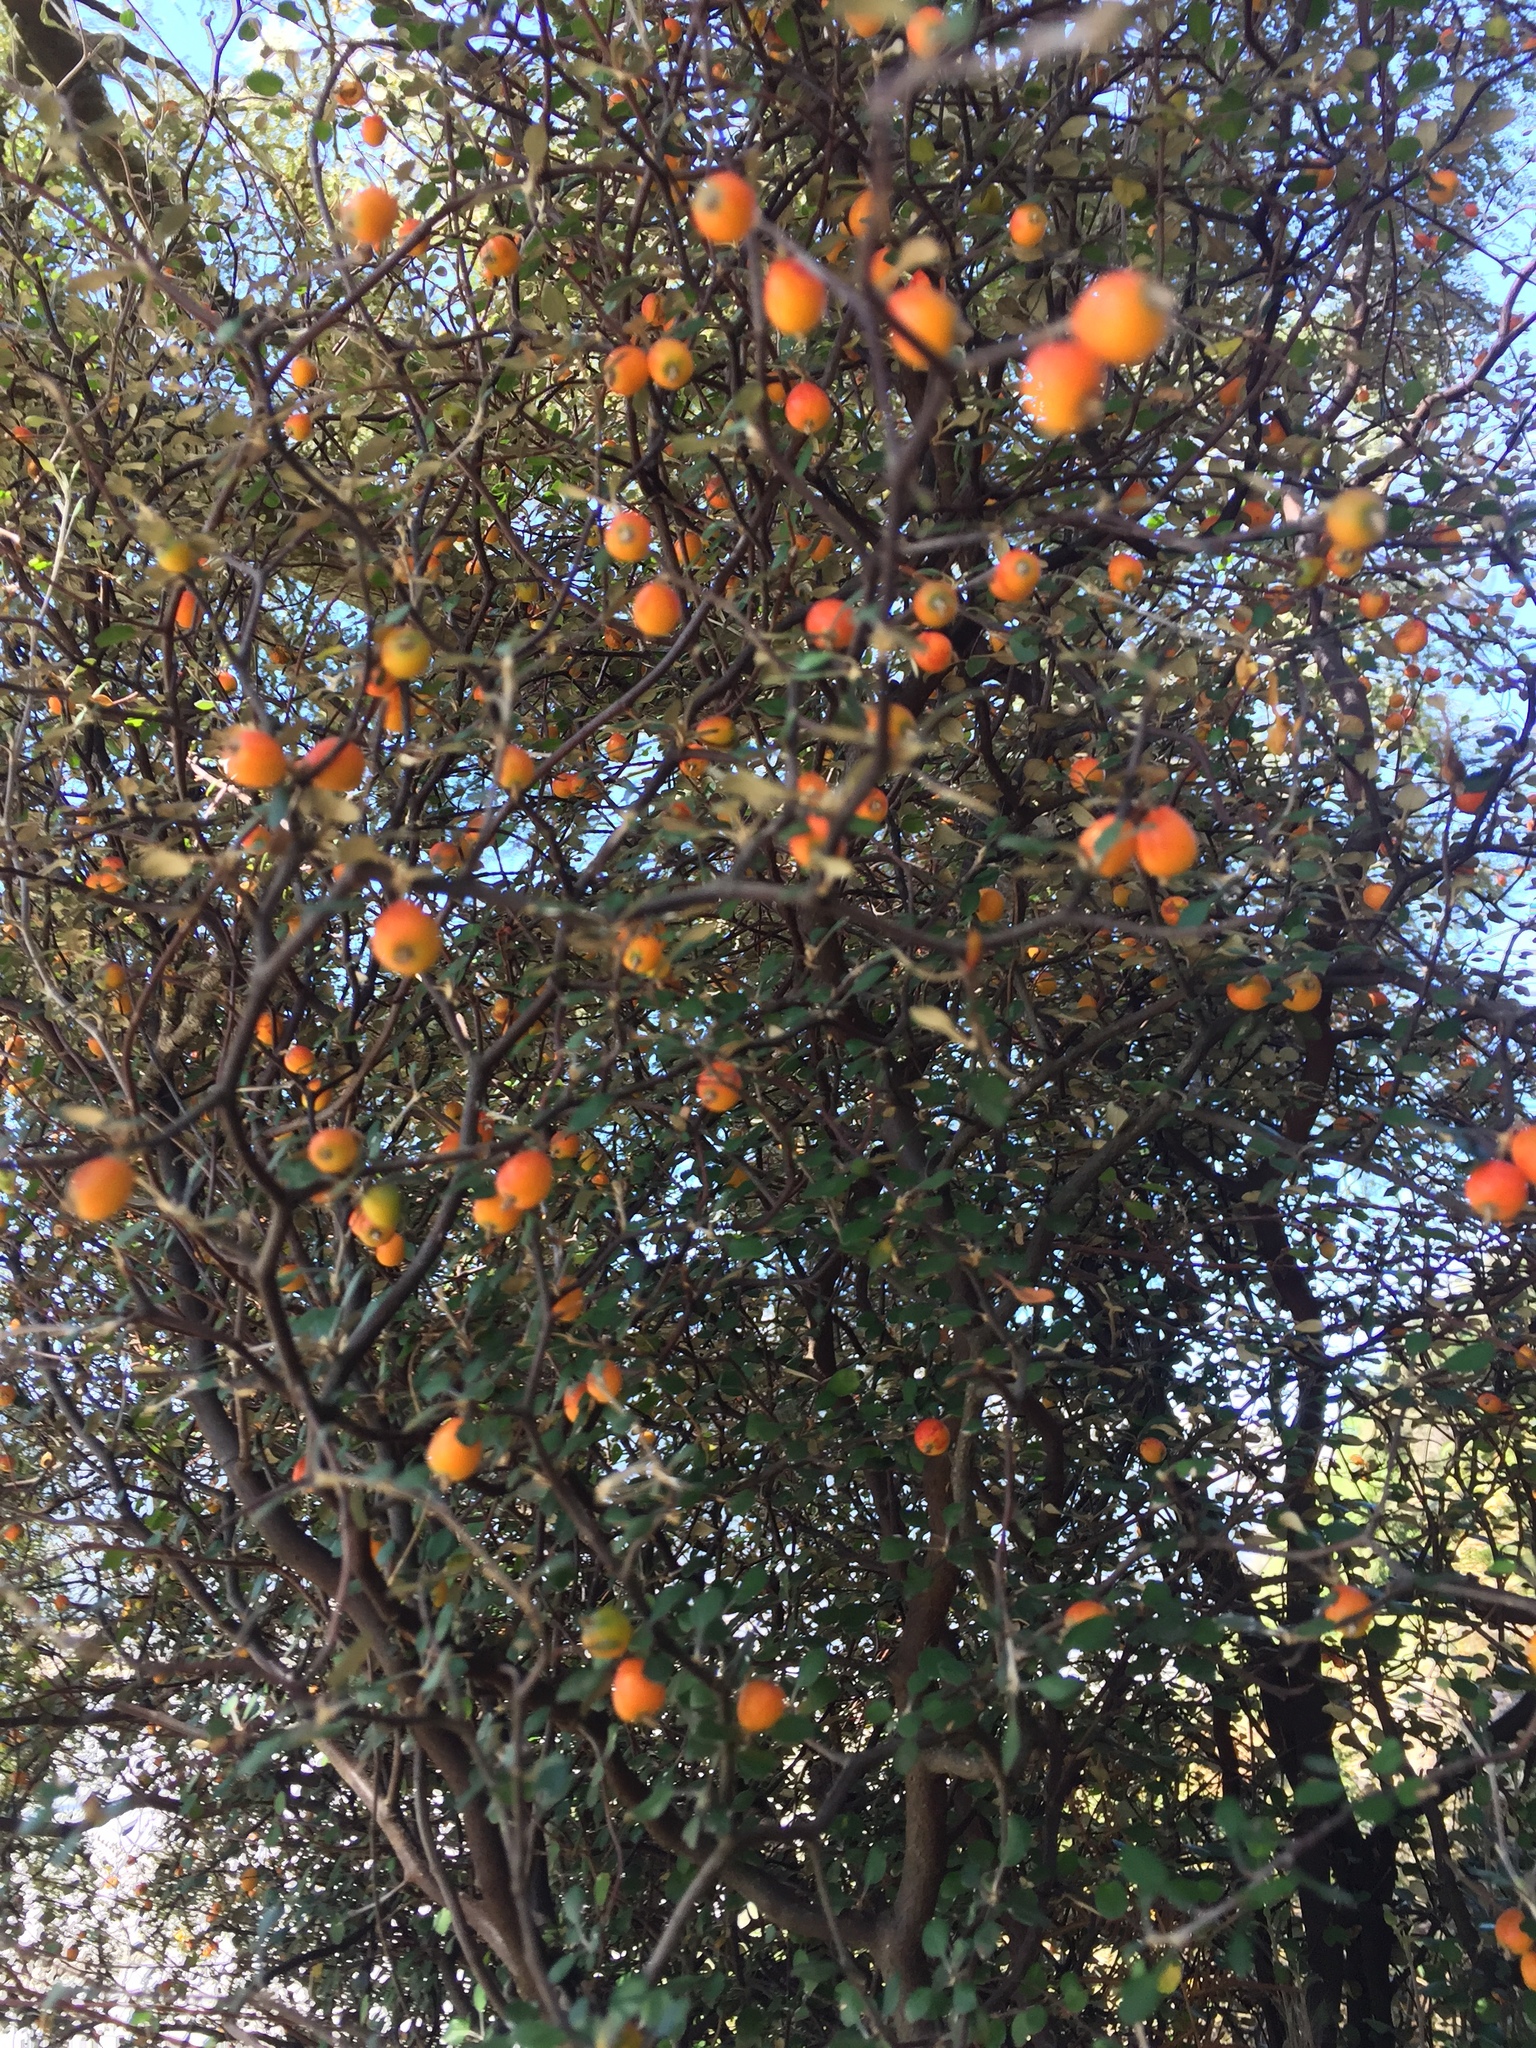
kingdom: Plantae
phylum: Tracheophyta
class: Magnoliopsida
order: Asterales
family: Argophyllaceae
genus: Corokia
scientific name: Corokia cotoneaster
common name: Wire nettingbush
